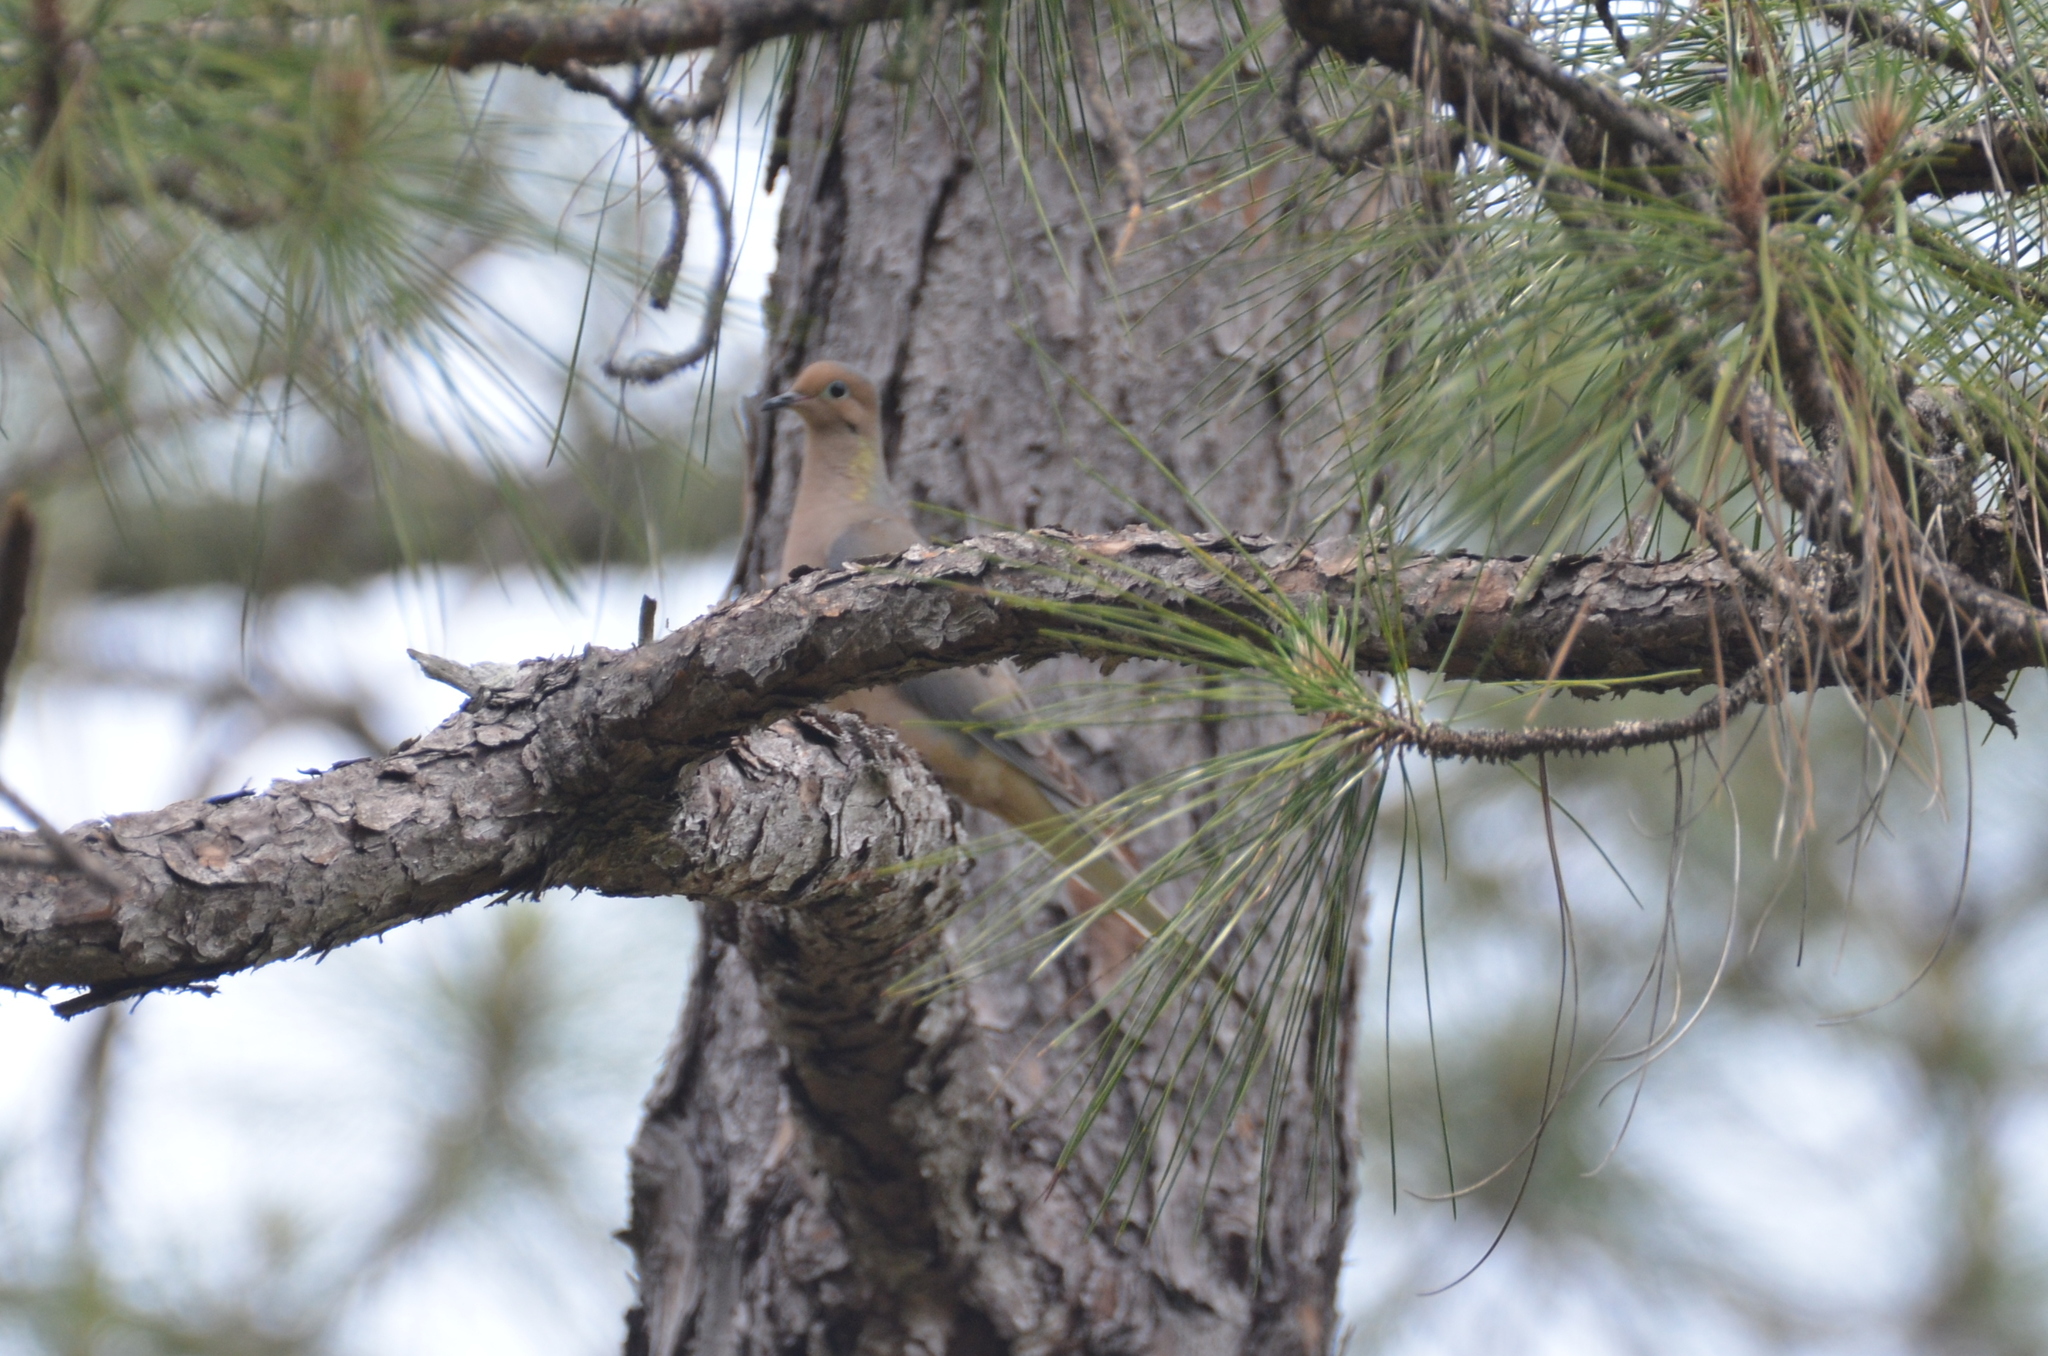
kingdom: Animalia
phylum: Chordata
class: Aves
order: Columbiformes
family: Columbidae
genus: Zenaida
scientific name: Zenaida macroura
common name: Mourning dove
